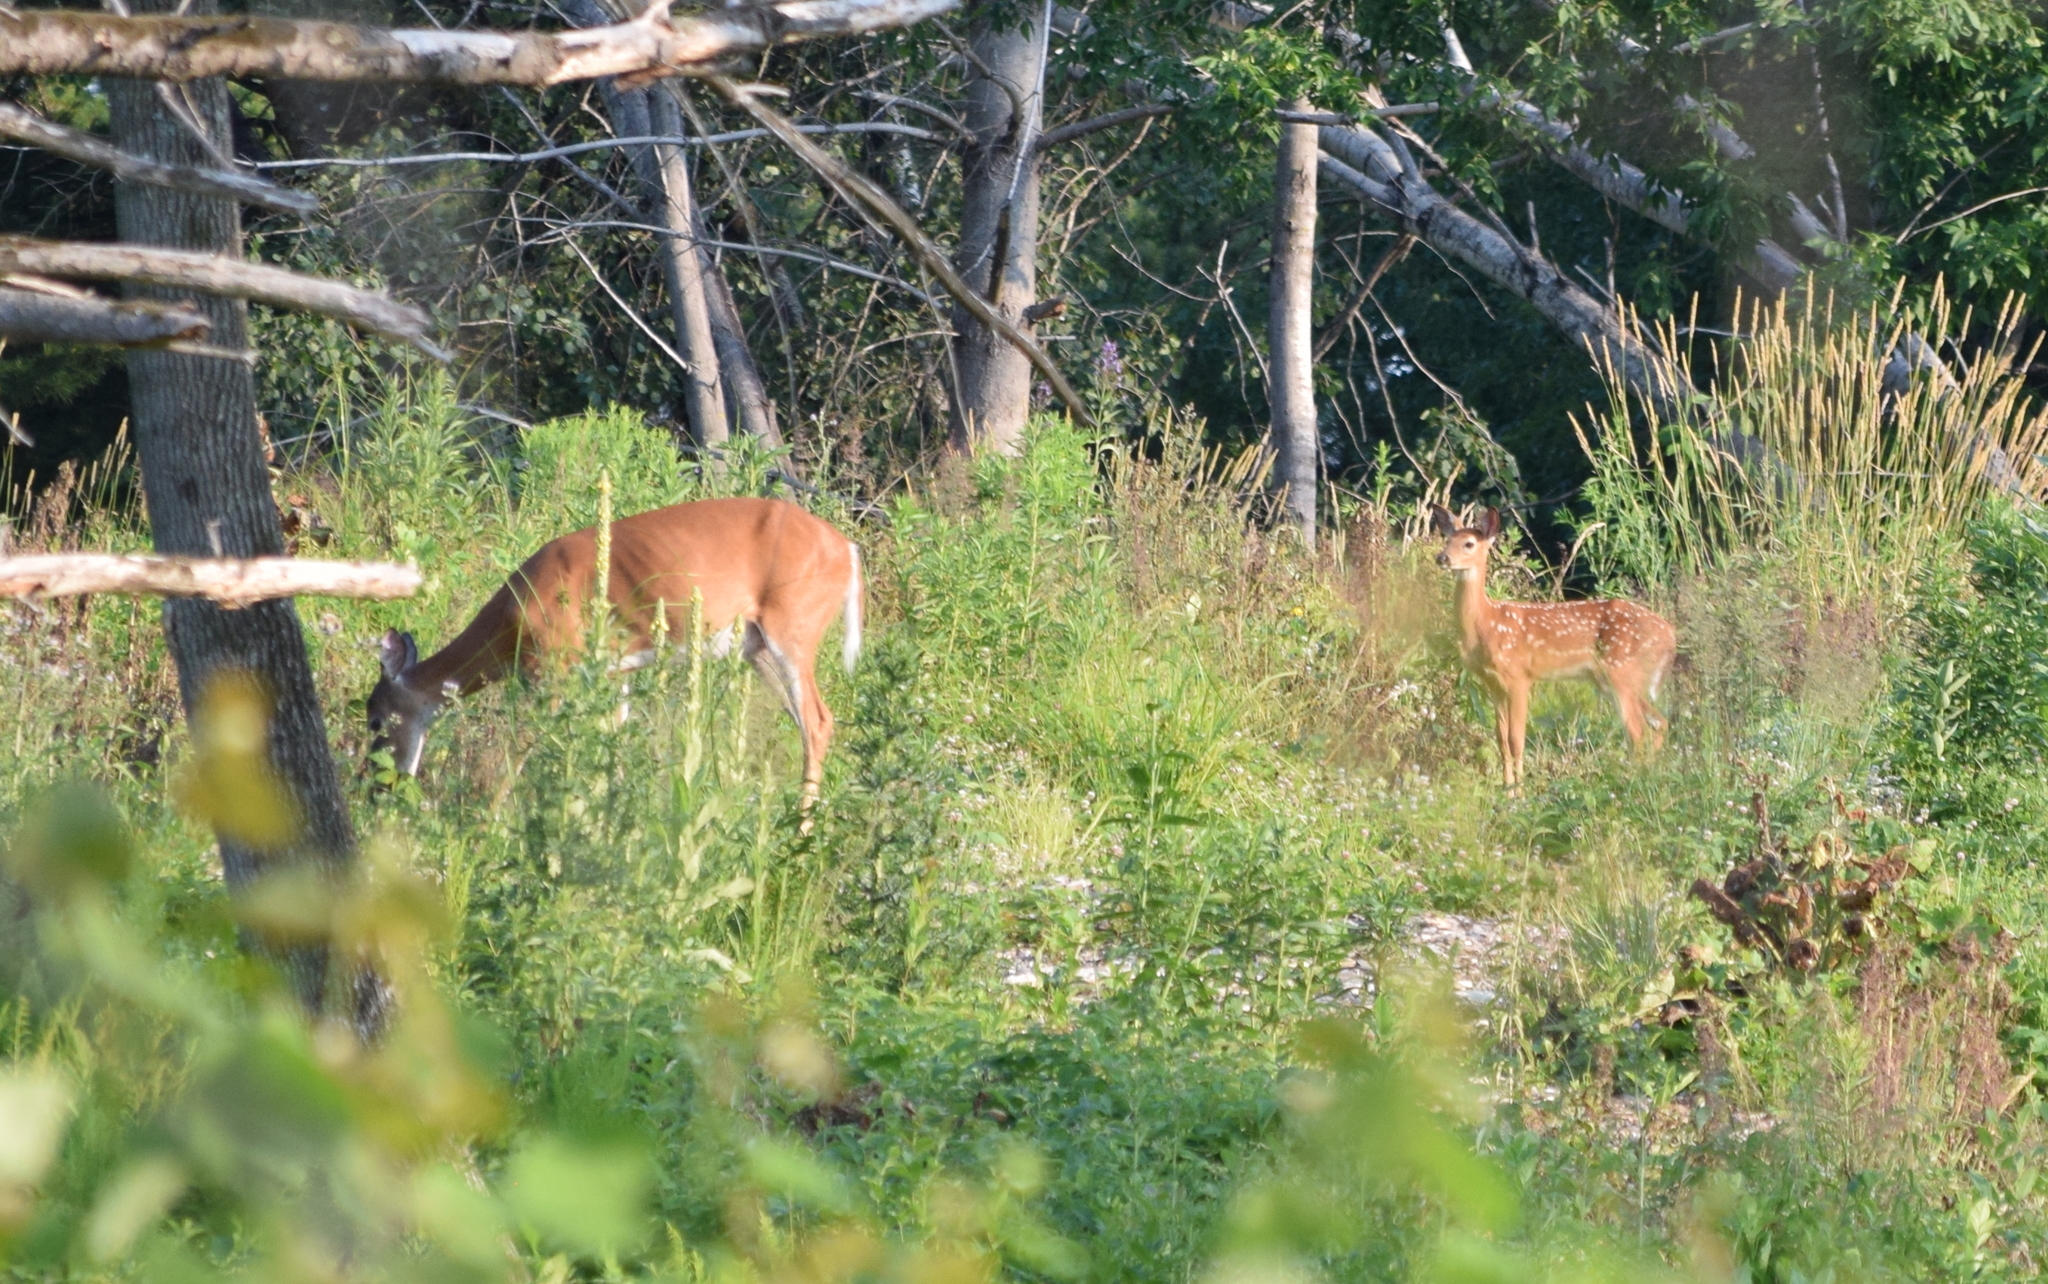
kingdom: Animalia
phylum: Chordata
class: Mammalia
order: Artiodactyla
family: Cervidae
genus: Odocoileus
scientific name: Odocoileus virginianus
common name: White-tailed deer
